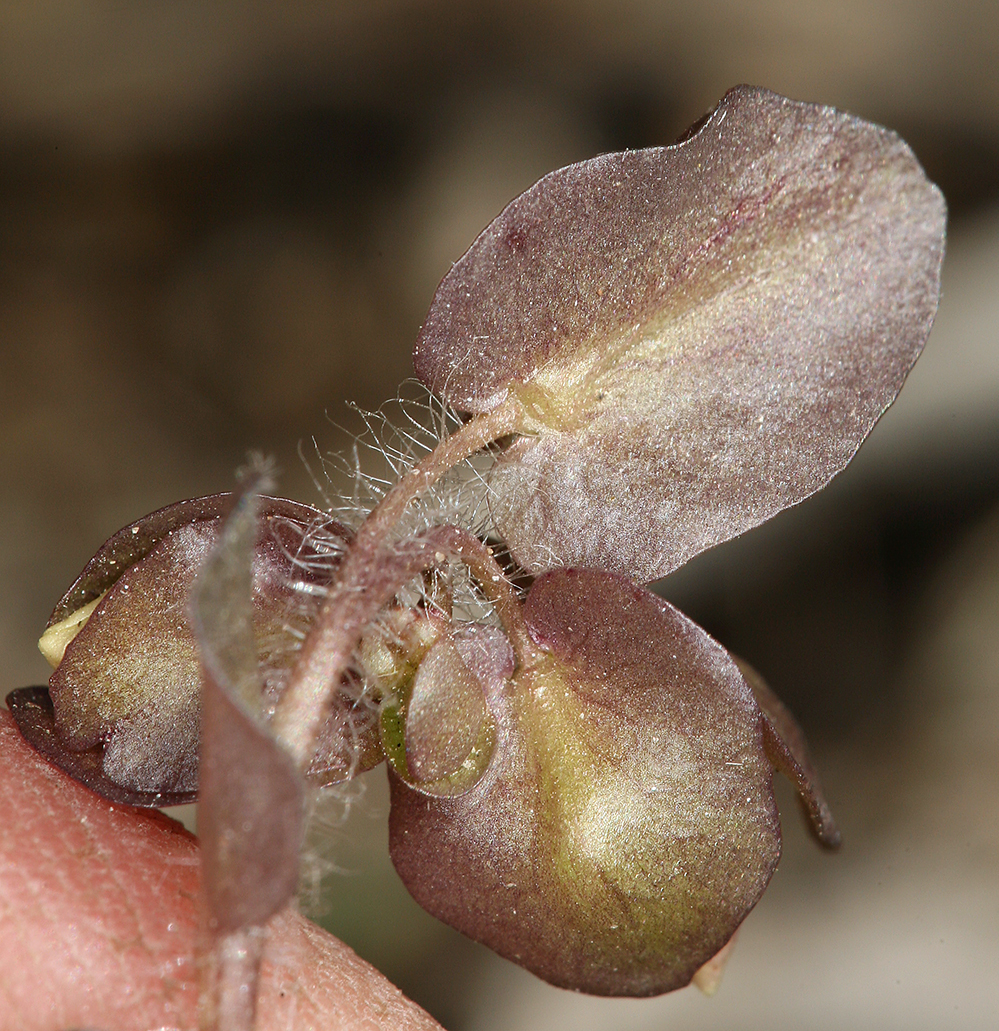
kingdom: Plantae
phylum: Tracheophyta
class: Magnoliopsida
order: Boraginales
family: Hydrophyllaceae
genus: Tricardia
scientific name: Tricardia watsonii
